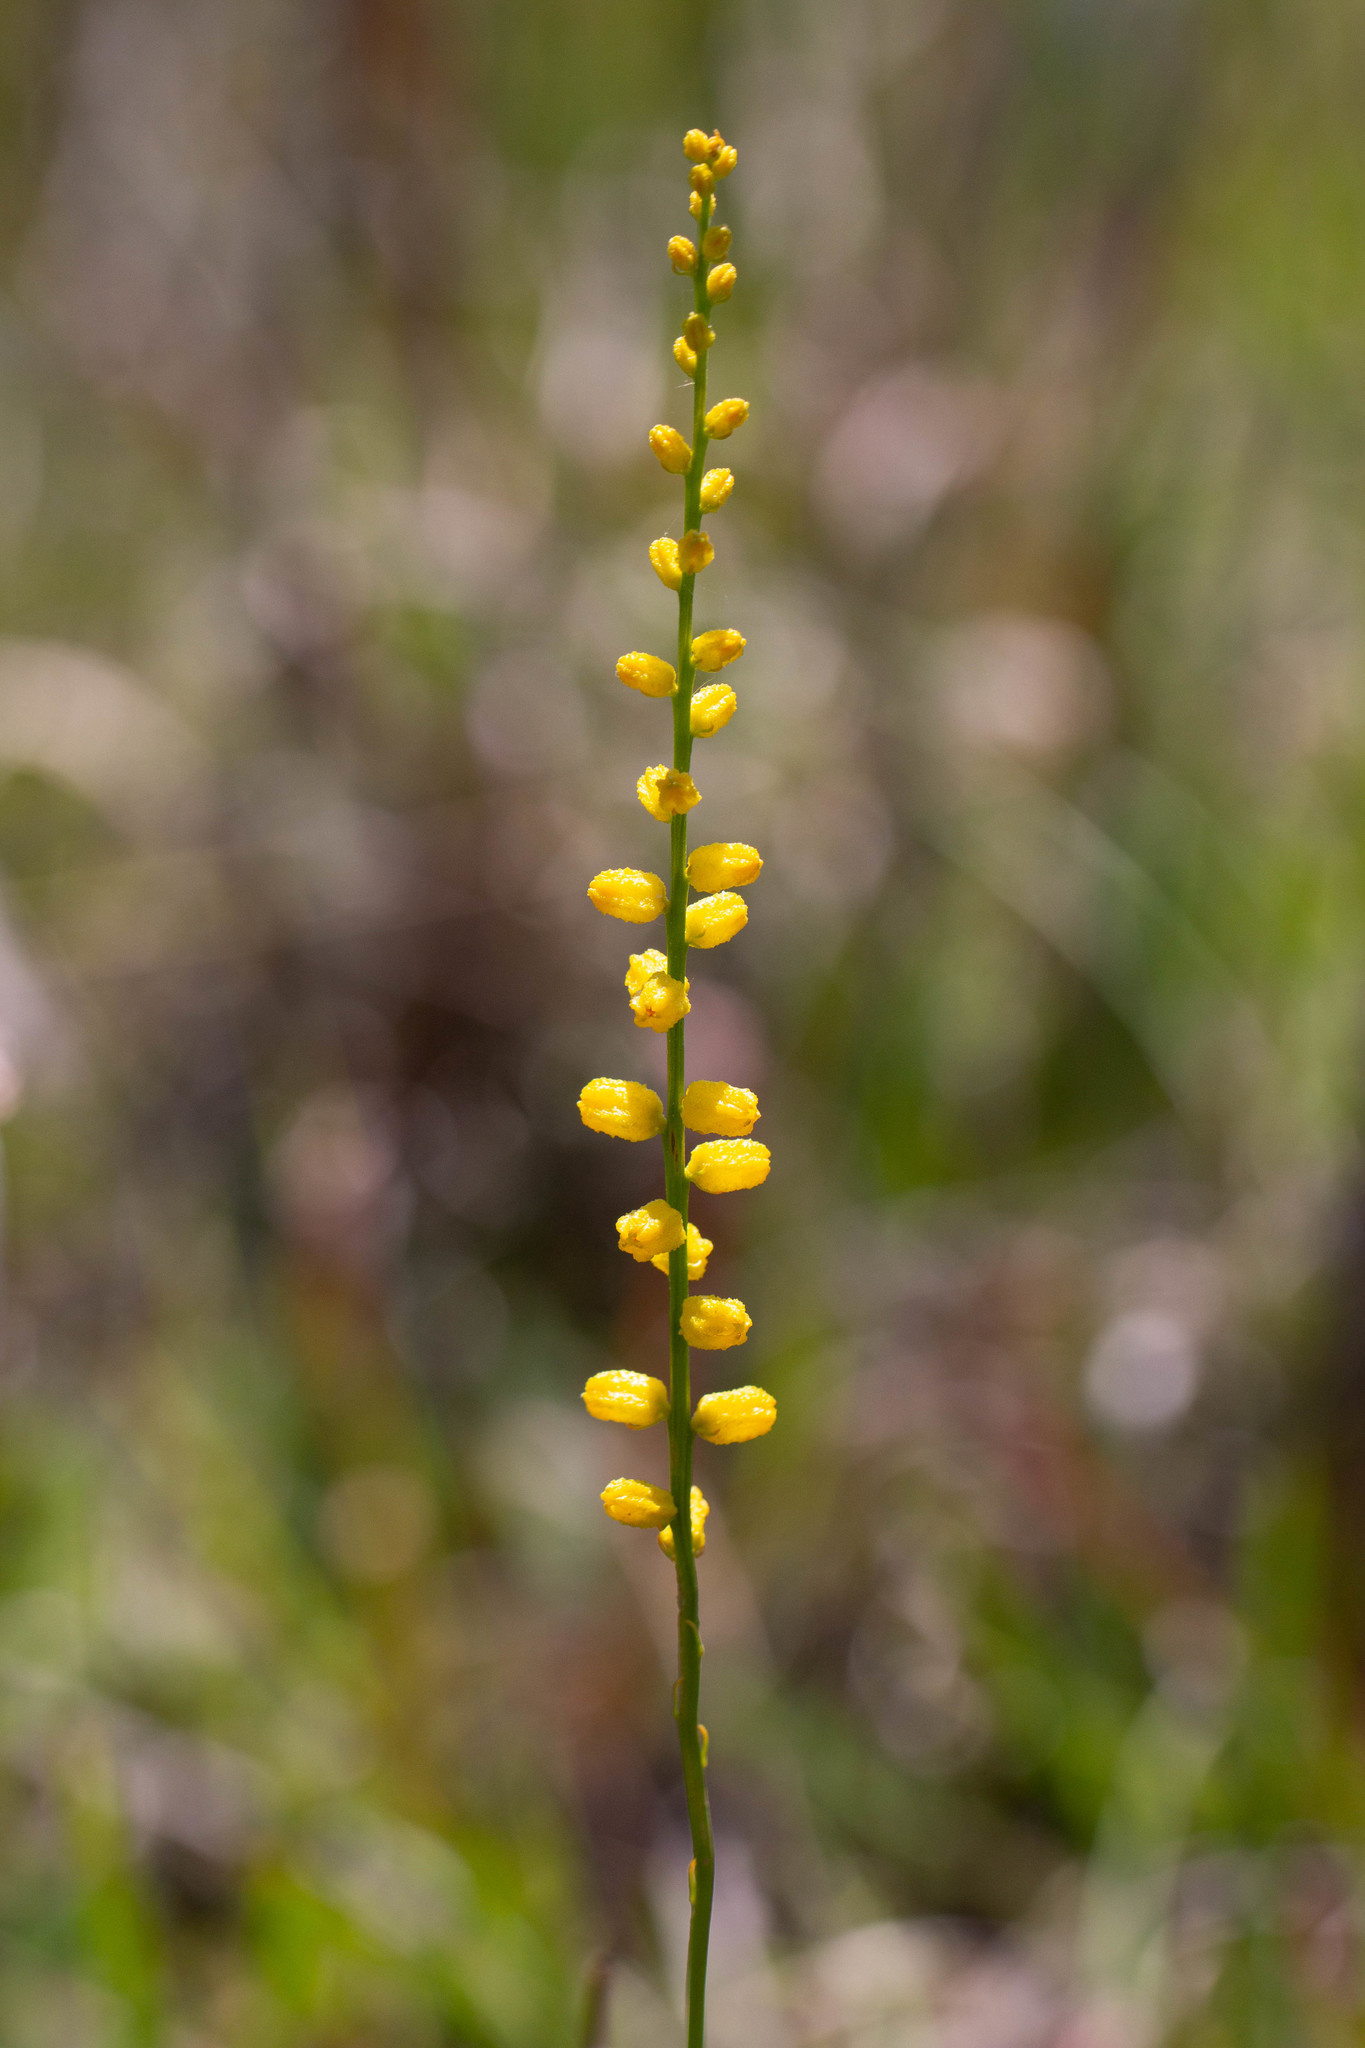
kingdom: Plantae
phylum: Tracheophyta
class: Liliopsida
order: Dioscoreales
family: Nartheciaceae
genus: Aletris
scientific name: Aletris aurea
